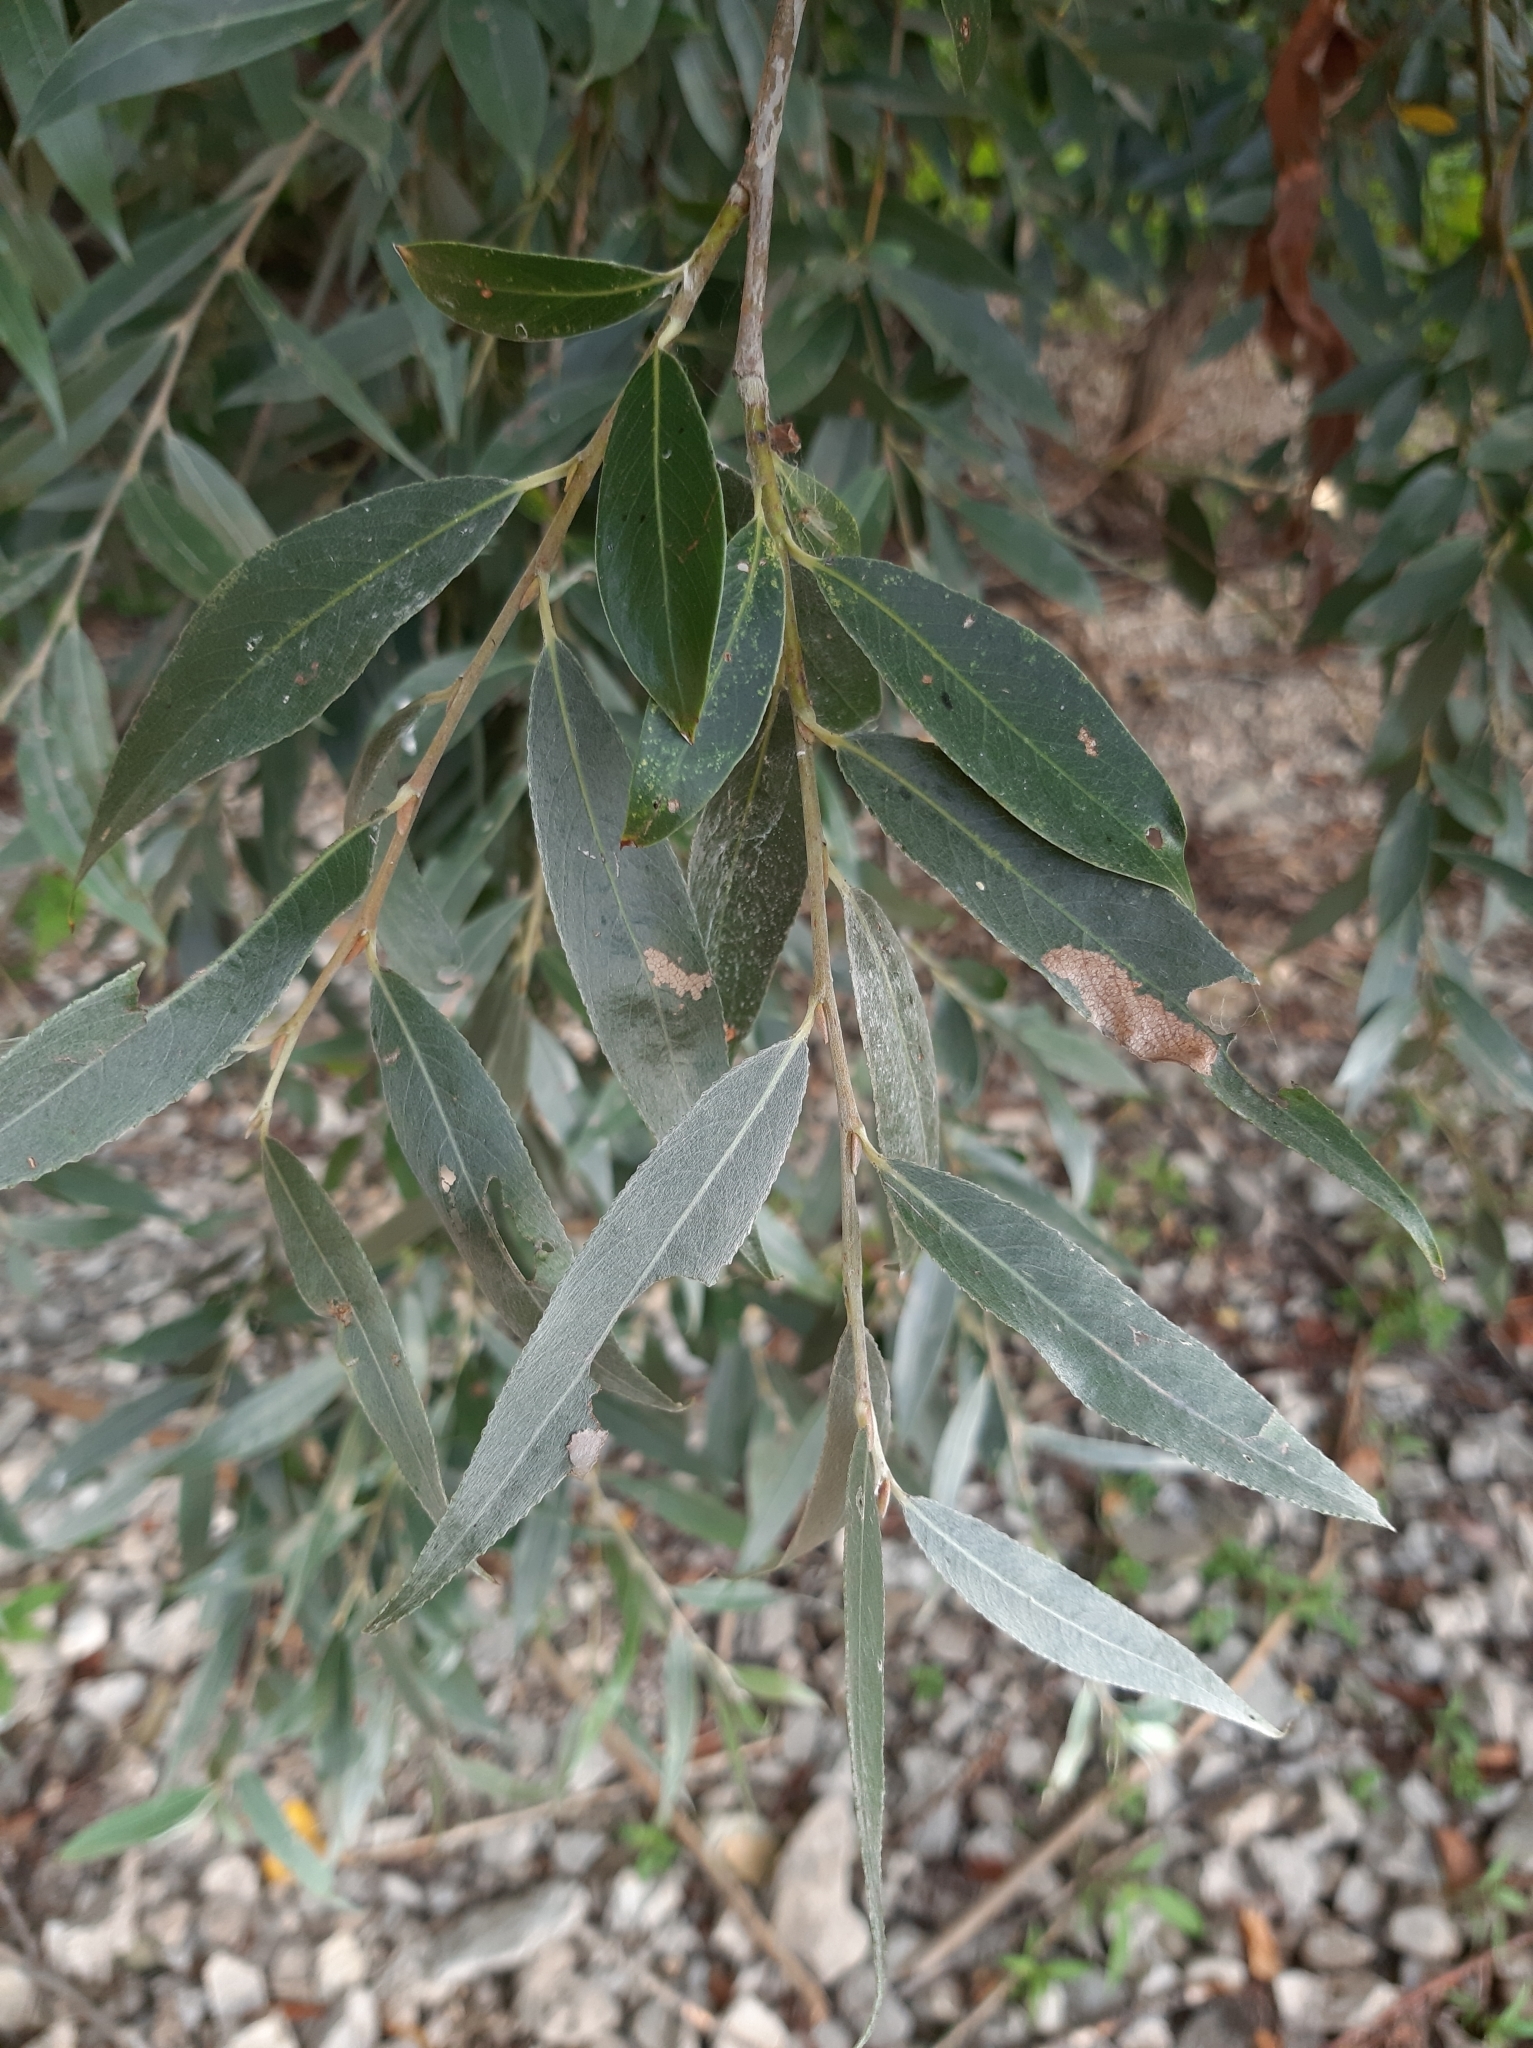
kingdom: Plantae
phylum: Tracheophyta
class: Magnoliopsida
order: Malpighiales
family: Salicaceae
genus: Salix
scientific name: Salix alba
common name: White willow
